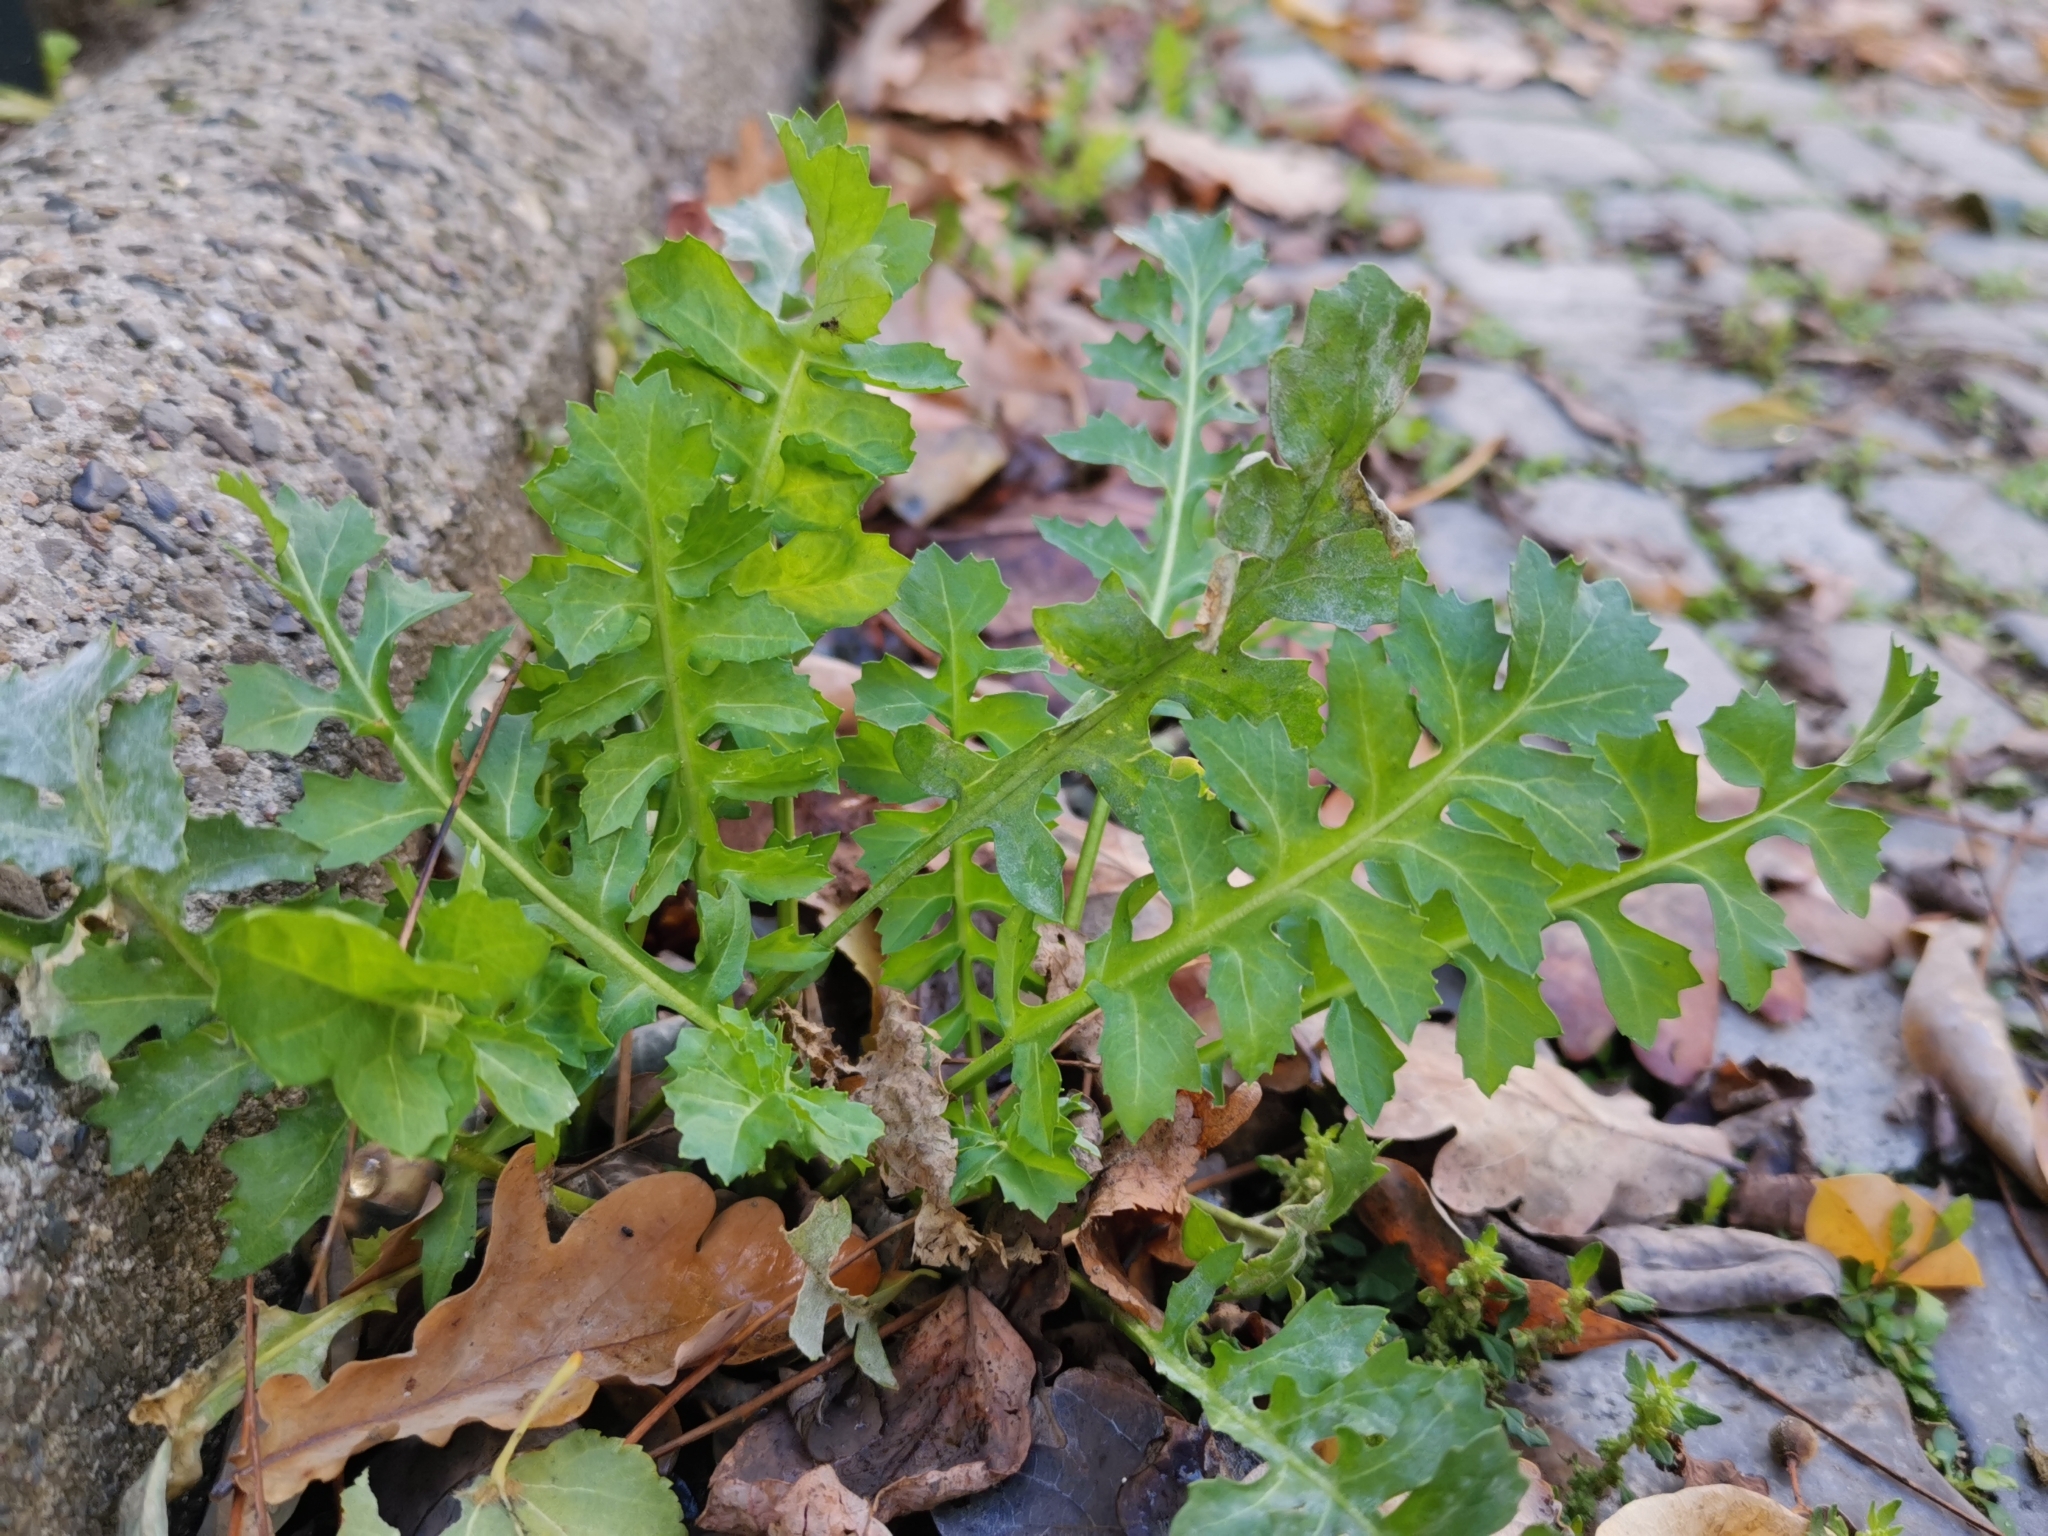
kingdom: Plantae
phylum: Tracheophyta
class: Magnoliopsida
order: Brassicales
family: Brassicaceae
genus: Rorippa
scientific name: Rorippa palustris
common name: Marsh yellow-cress
